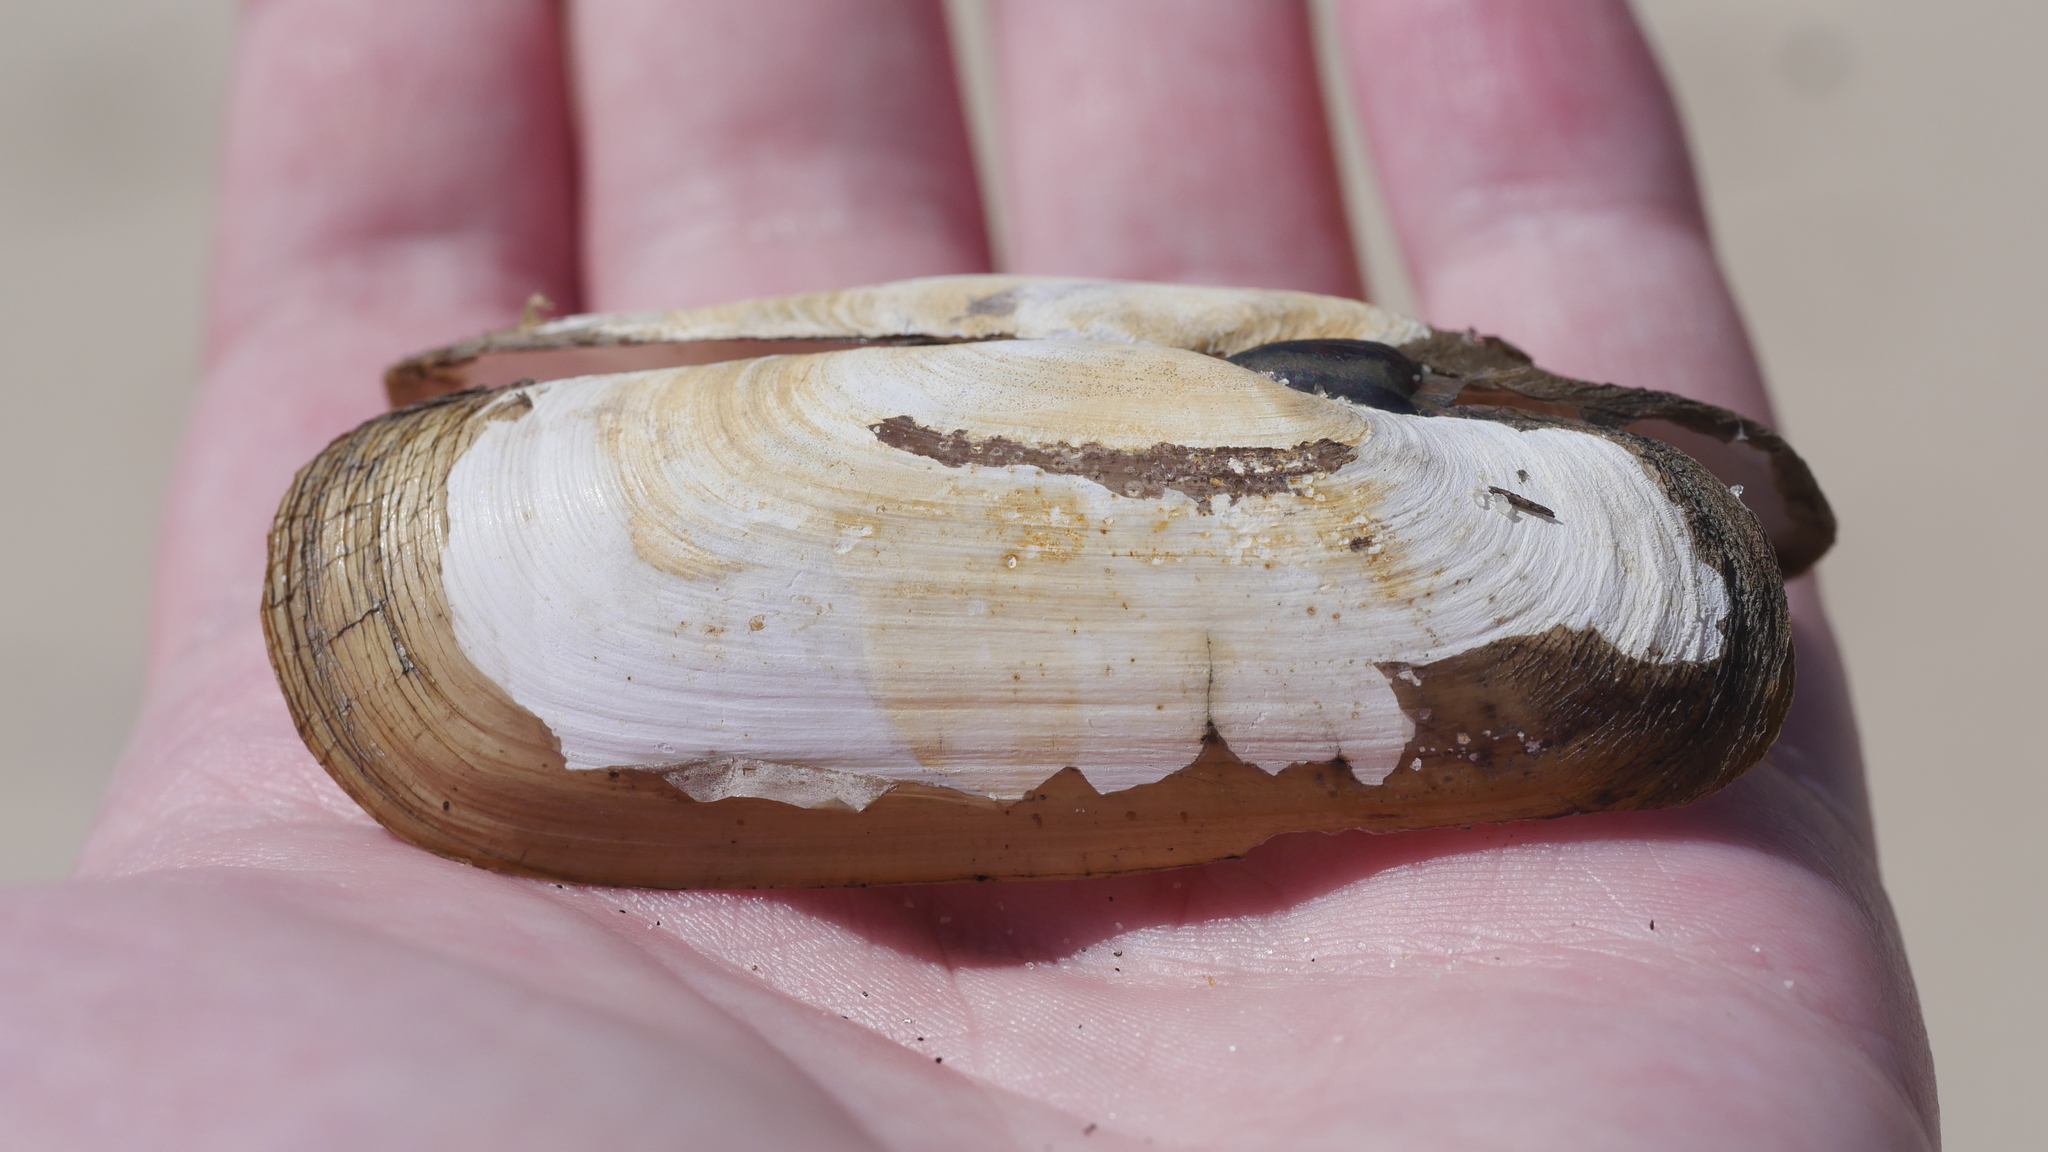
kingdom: Animalia
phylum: Mollusca
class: Bivalvia
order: Cardiida
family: Solecurtidae
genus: Tagelus
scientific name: Tagelus plebeius
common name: Stout tagelus
